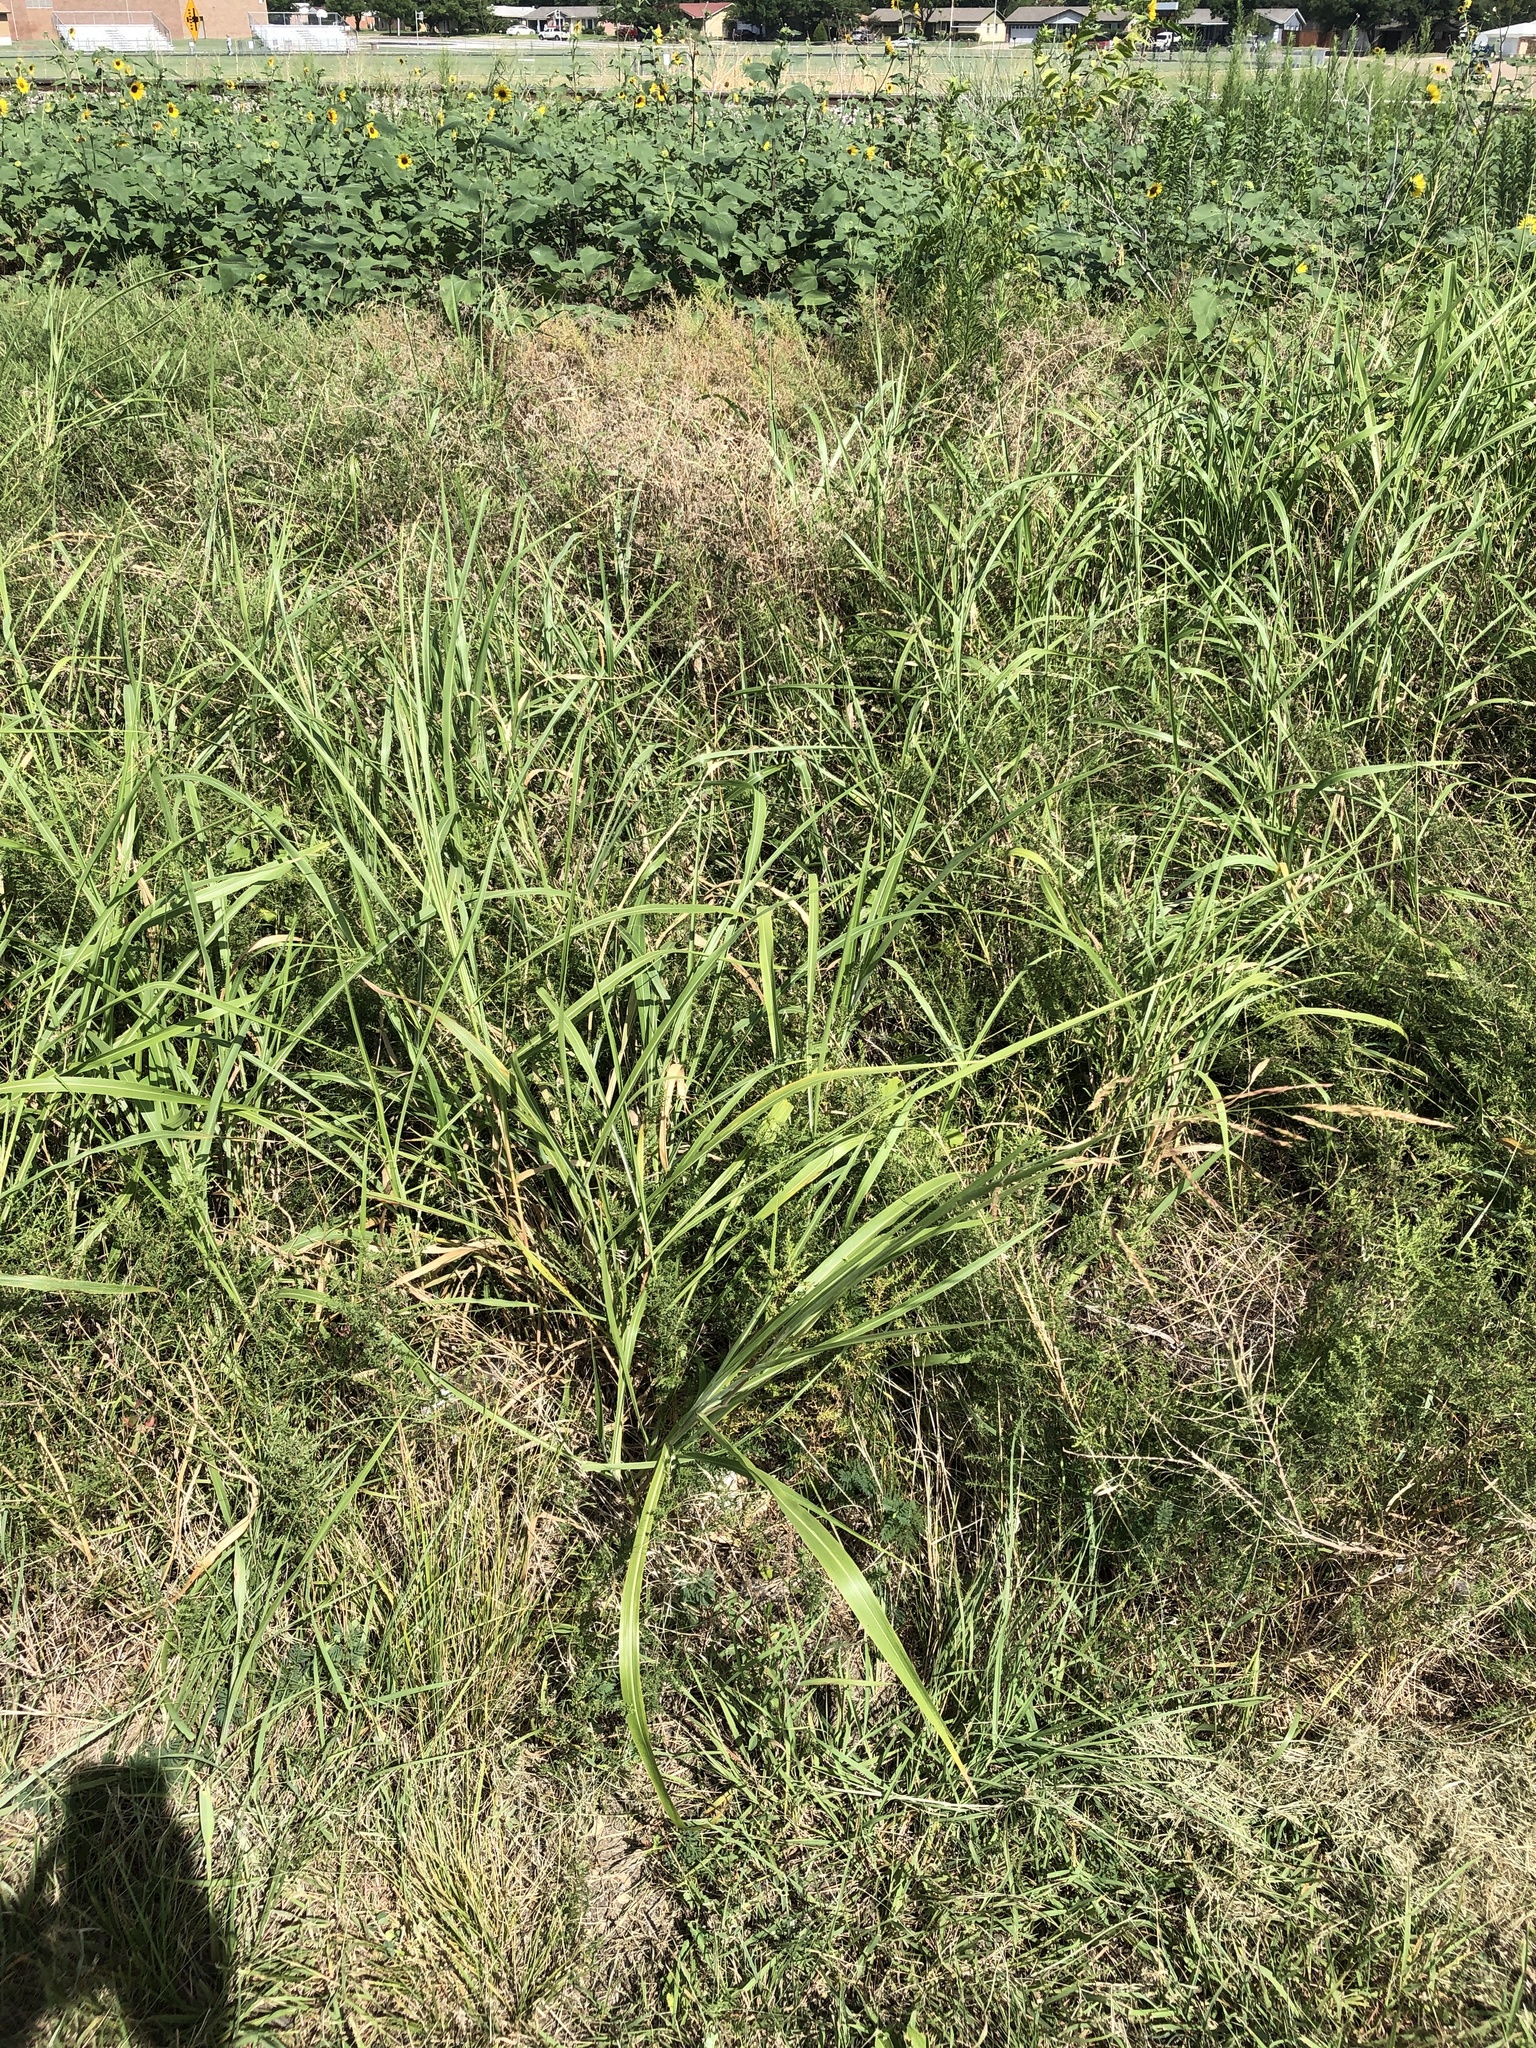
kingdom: Plantae
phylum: Tracheophyta
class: Liliopsida
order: Poales
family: Poaceae
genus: Sorghum
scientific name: Sorghum halepense
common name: Johnson-grass
